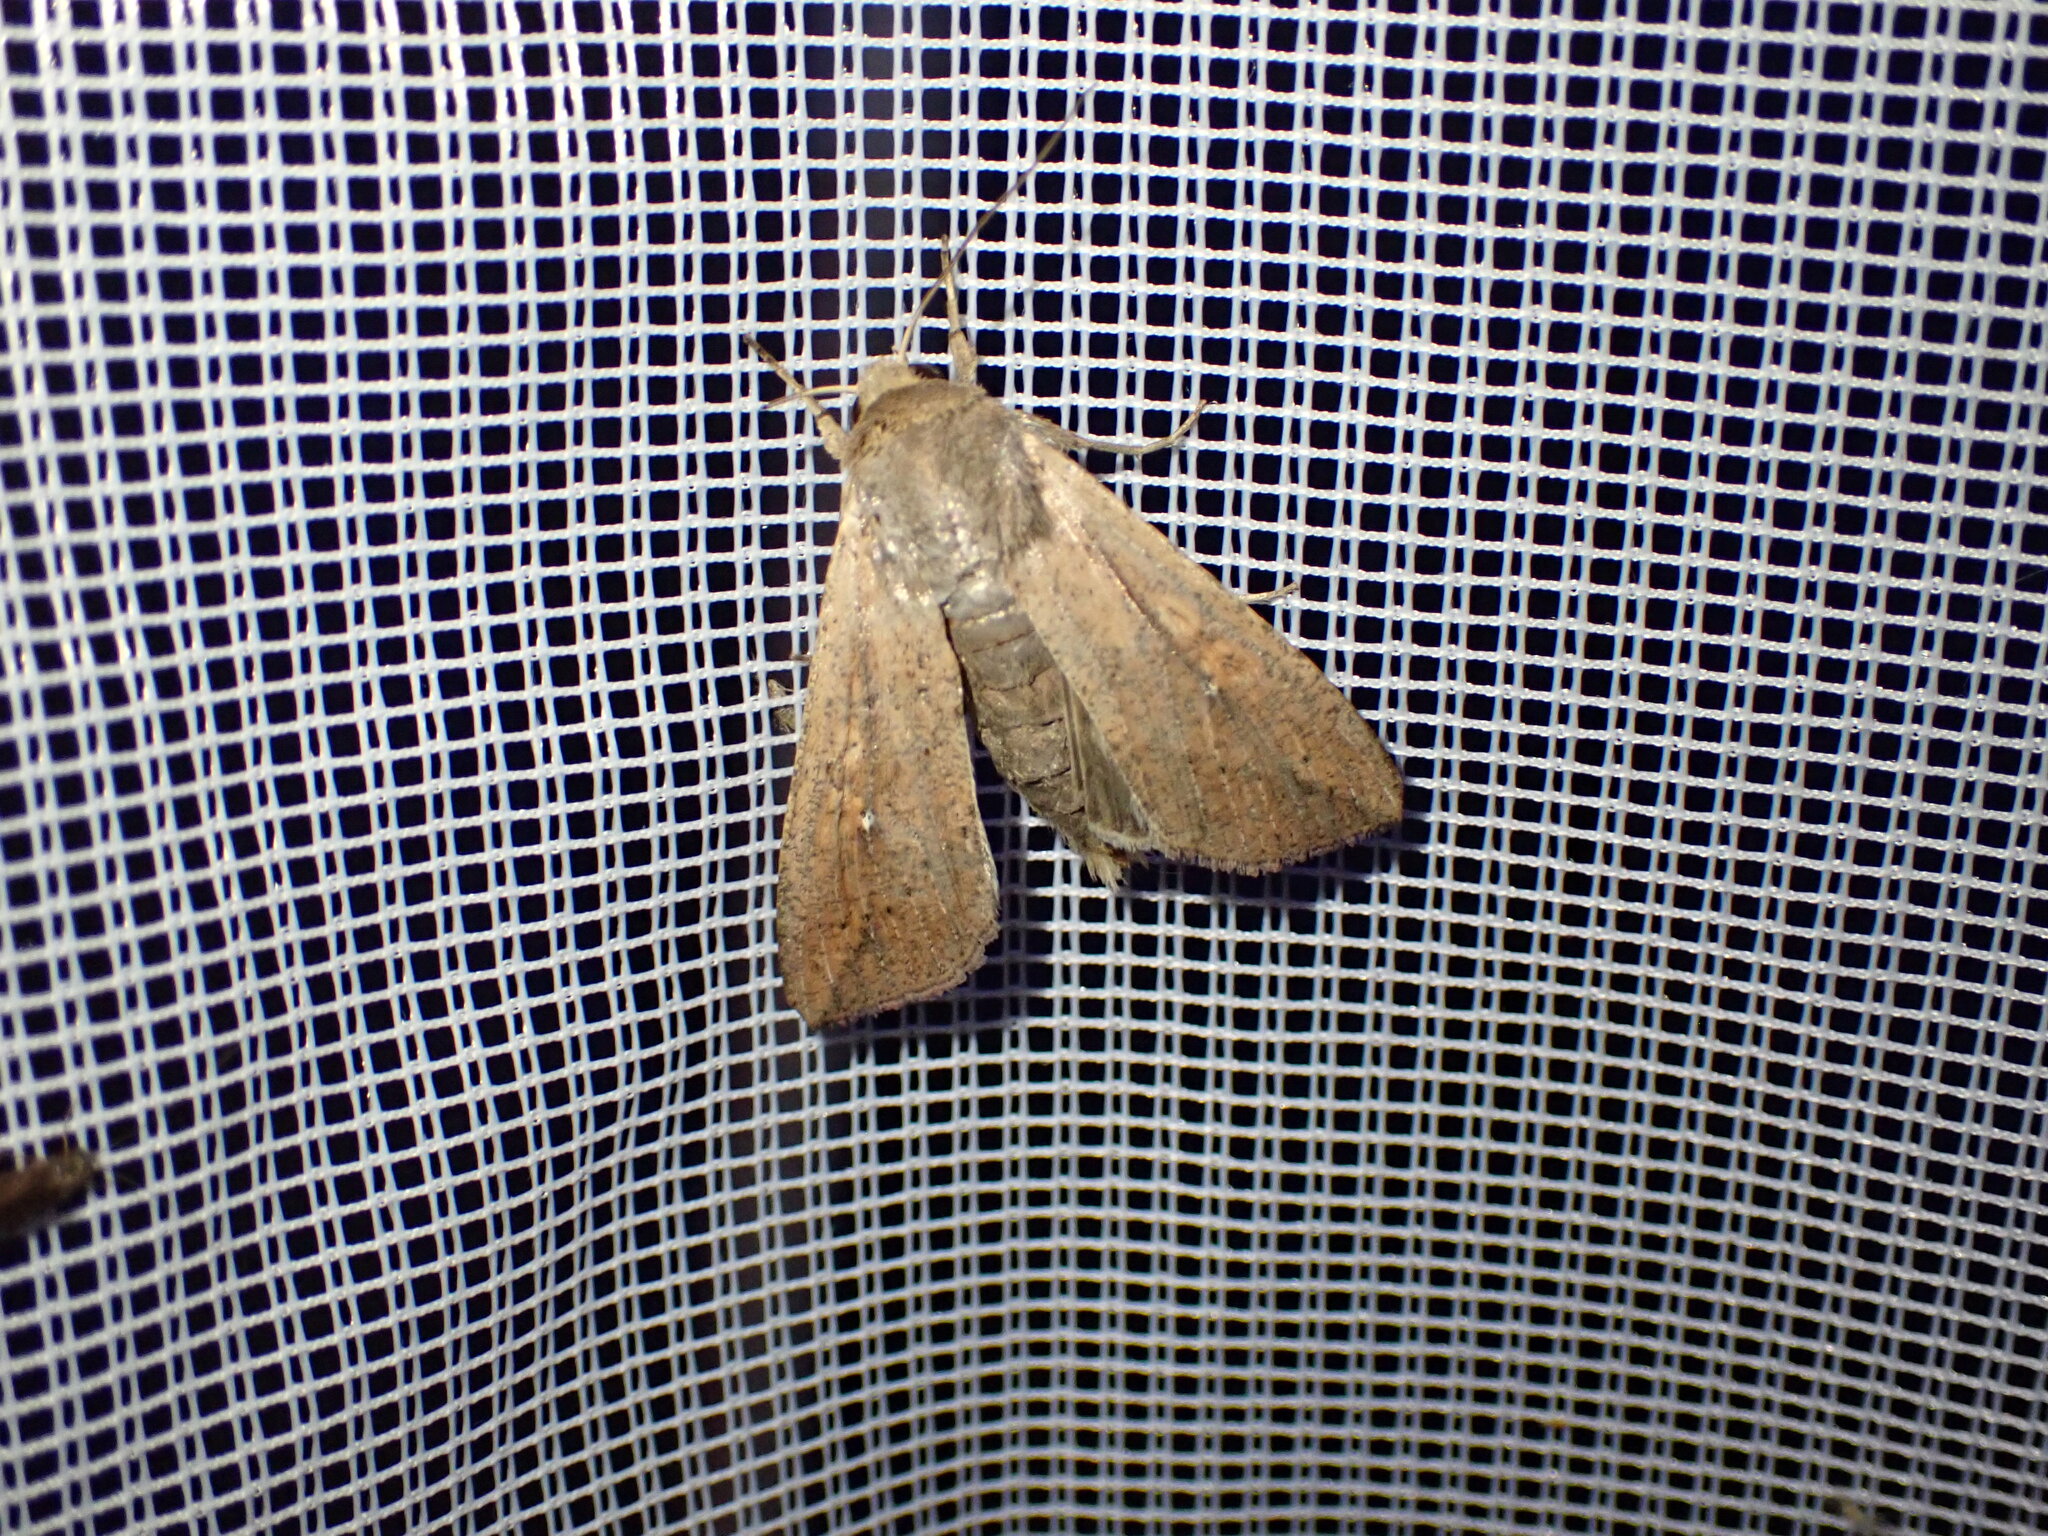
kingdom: Animalia
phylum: Arthropoda
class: Insecta
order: Lepidoptera
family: Noctuidae
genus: Mythimna
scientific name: Mythimna unipuncta
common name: White-speck
